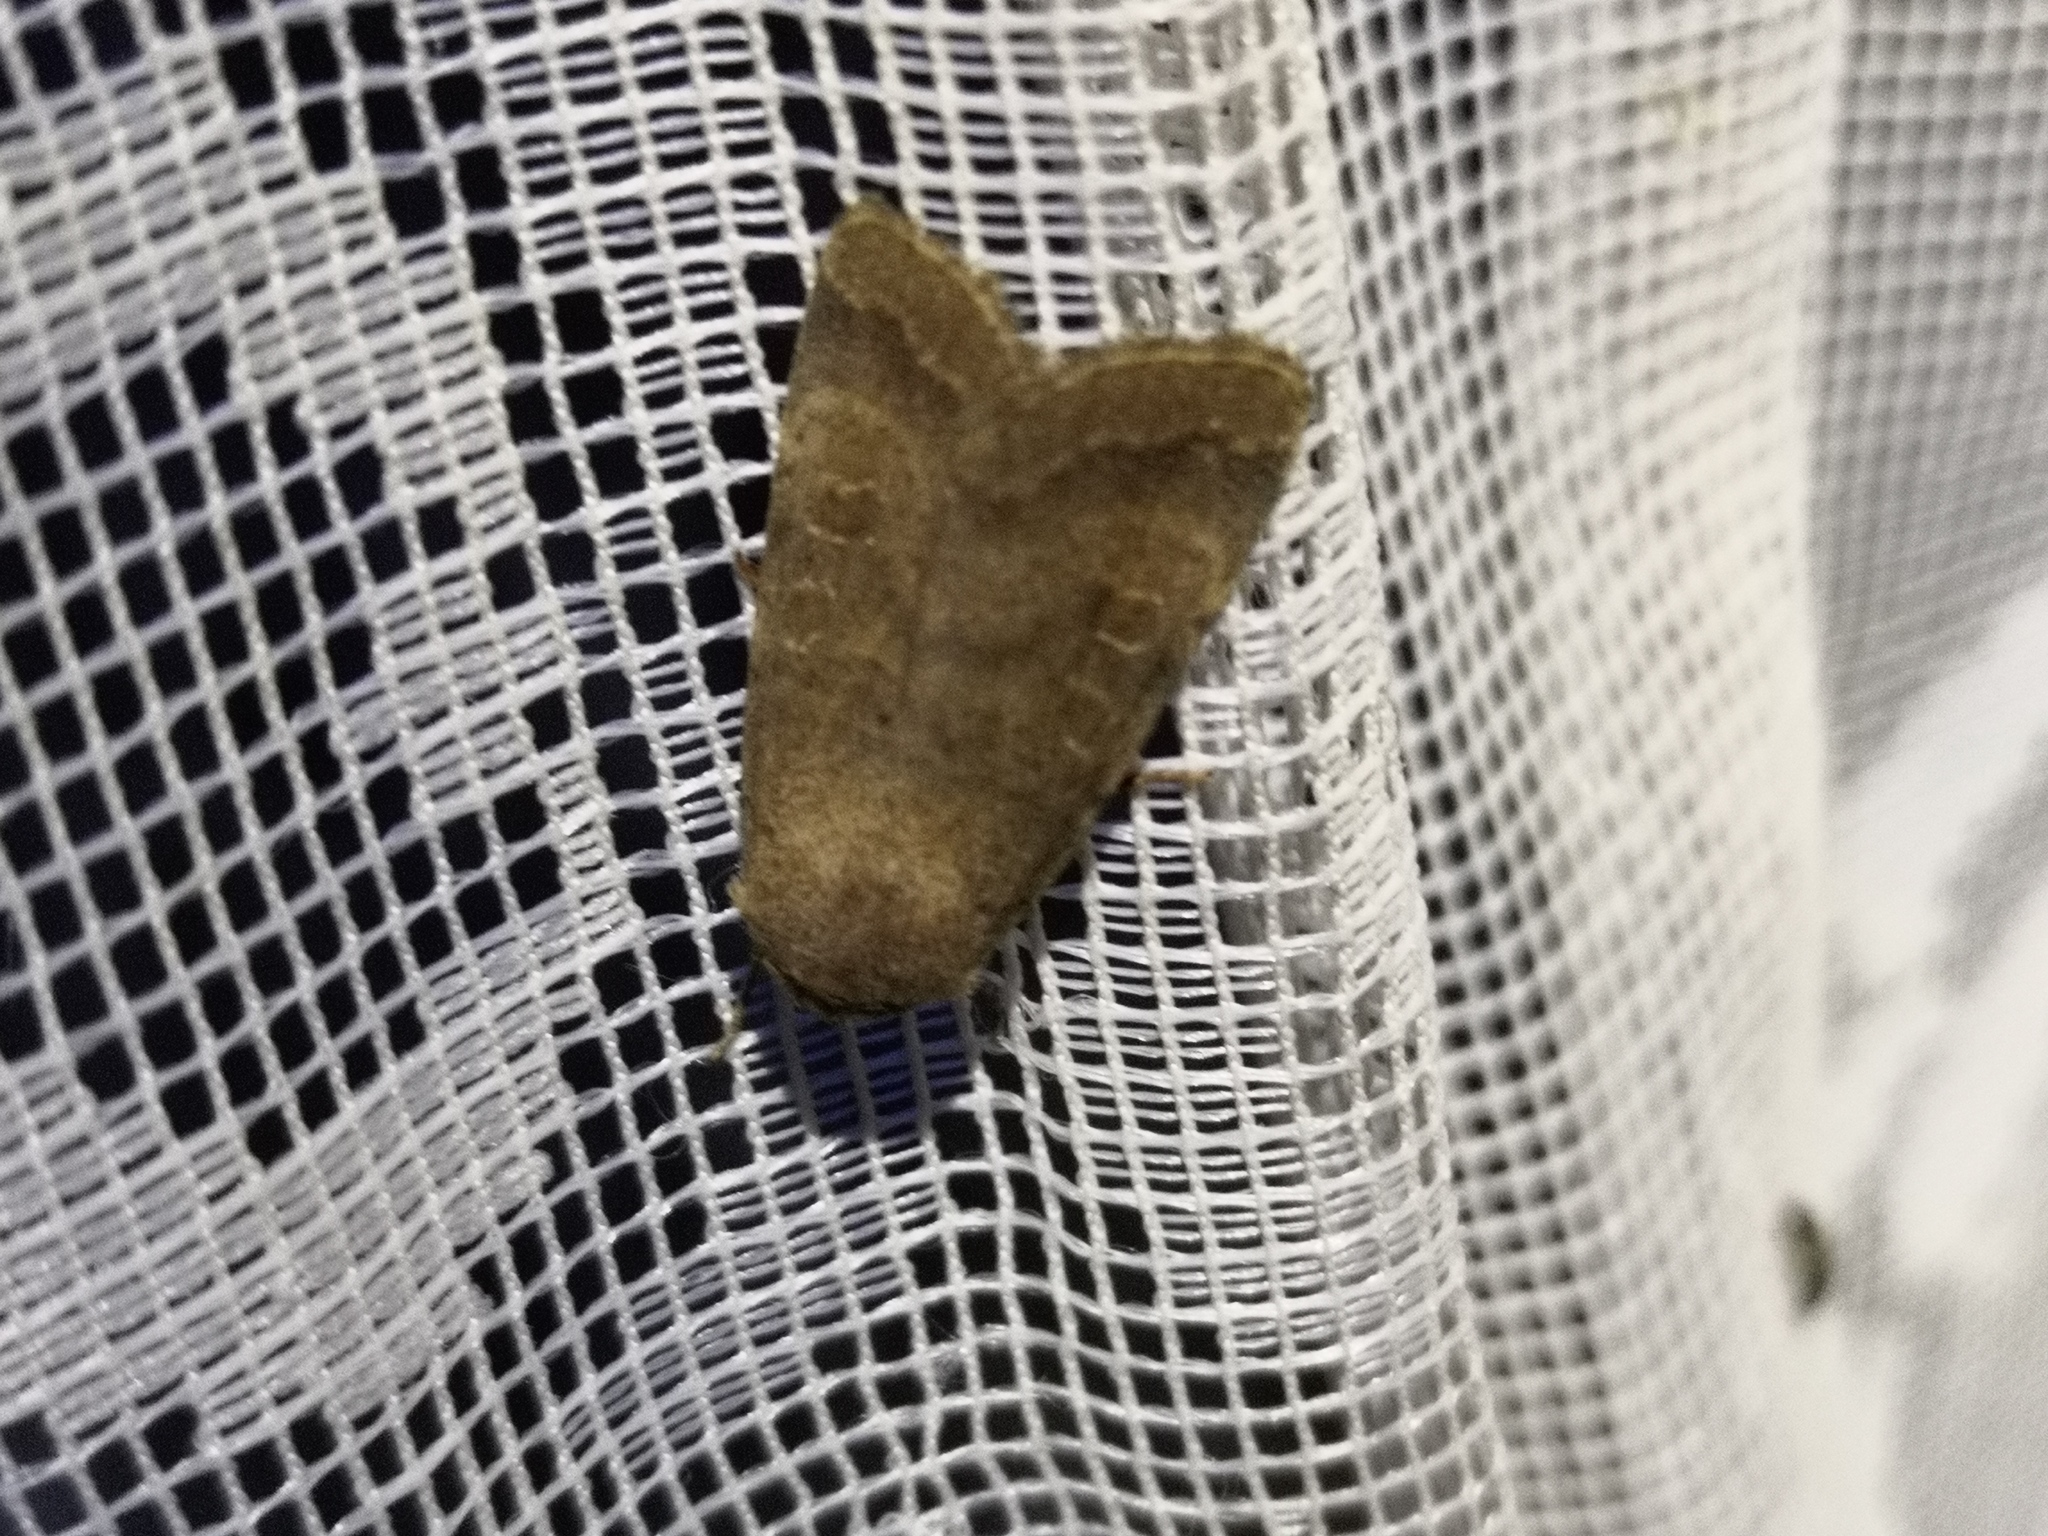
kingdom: Animalia
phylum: Arthropoda
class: Insecta
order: Lepidoptera
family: Noctuidae
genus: Hoplodrina
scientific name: Hoplodrina blanda
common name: Rustic
